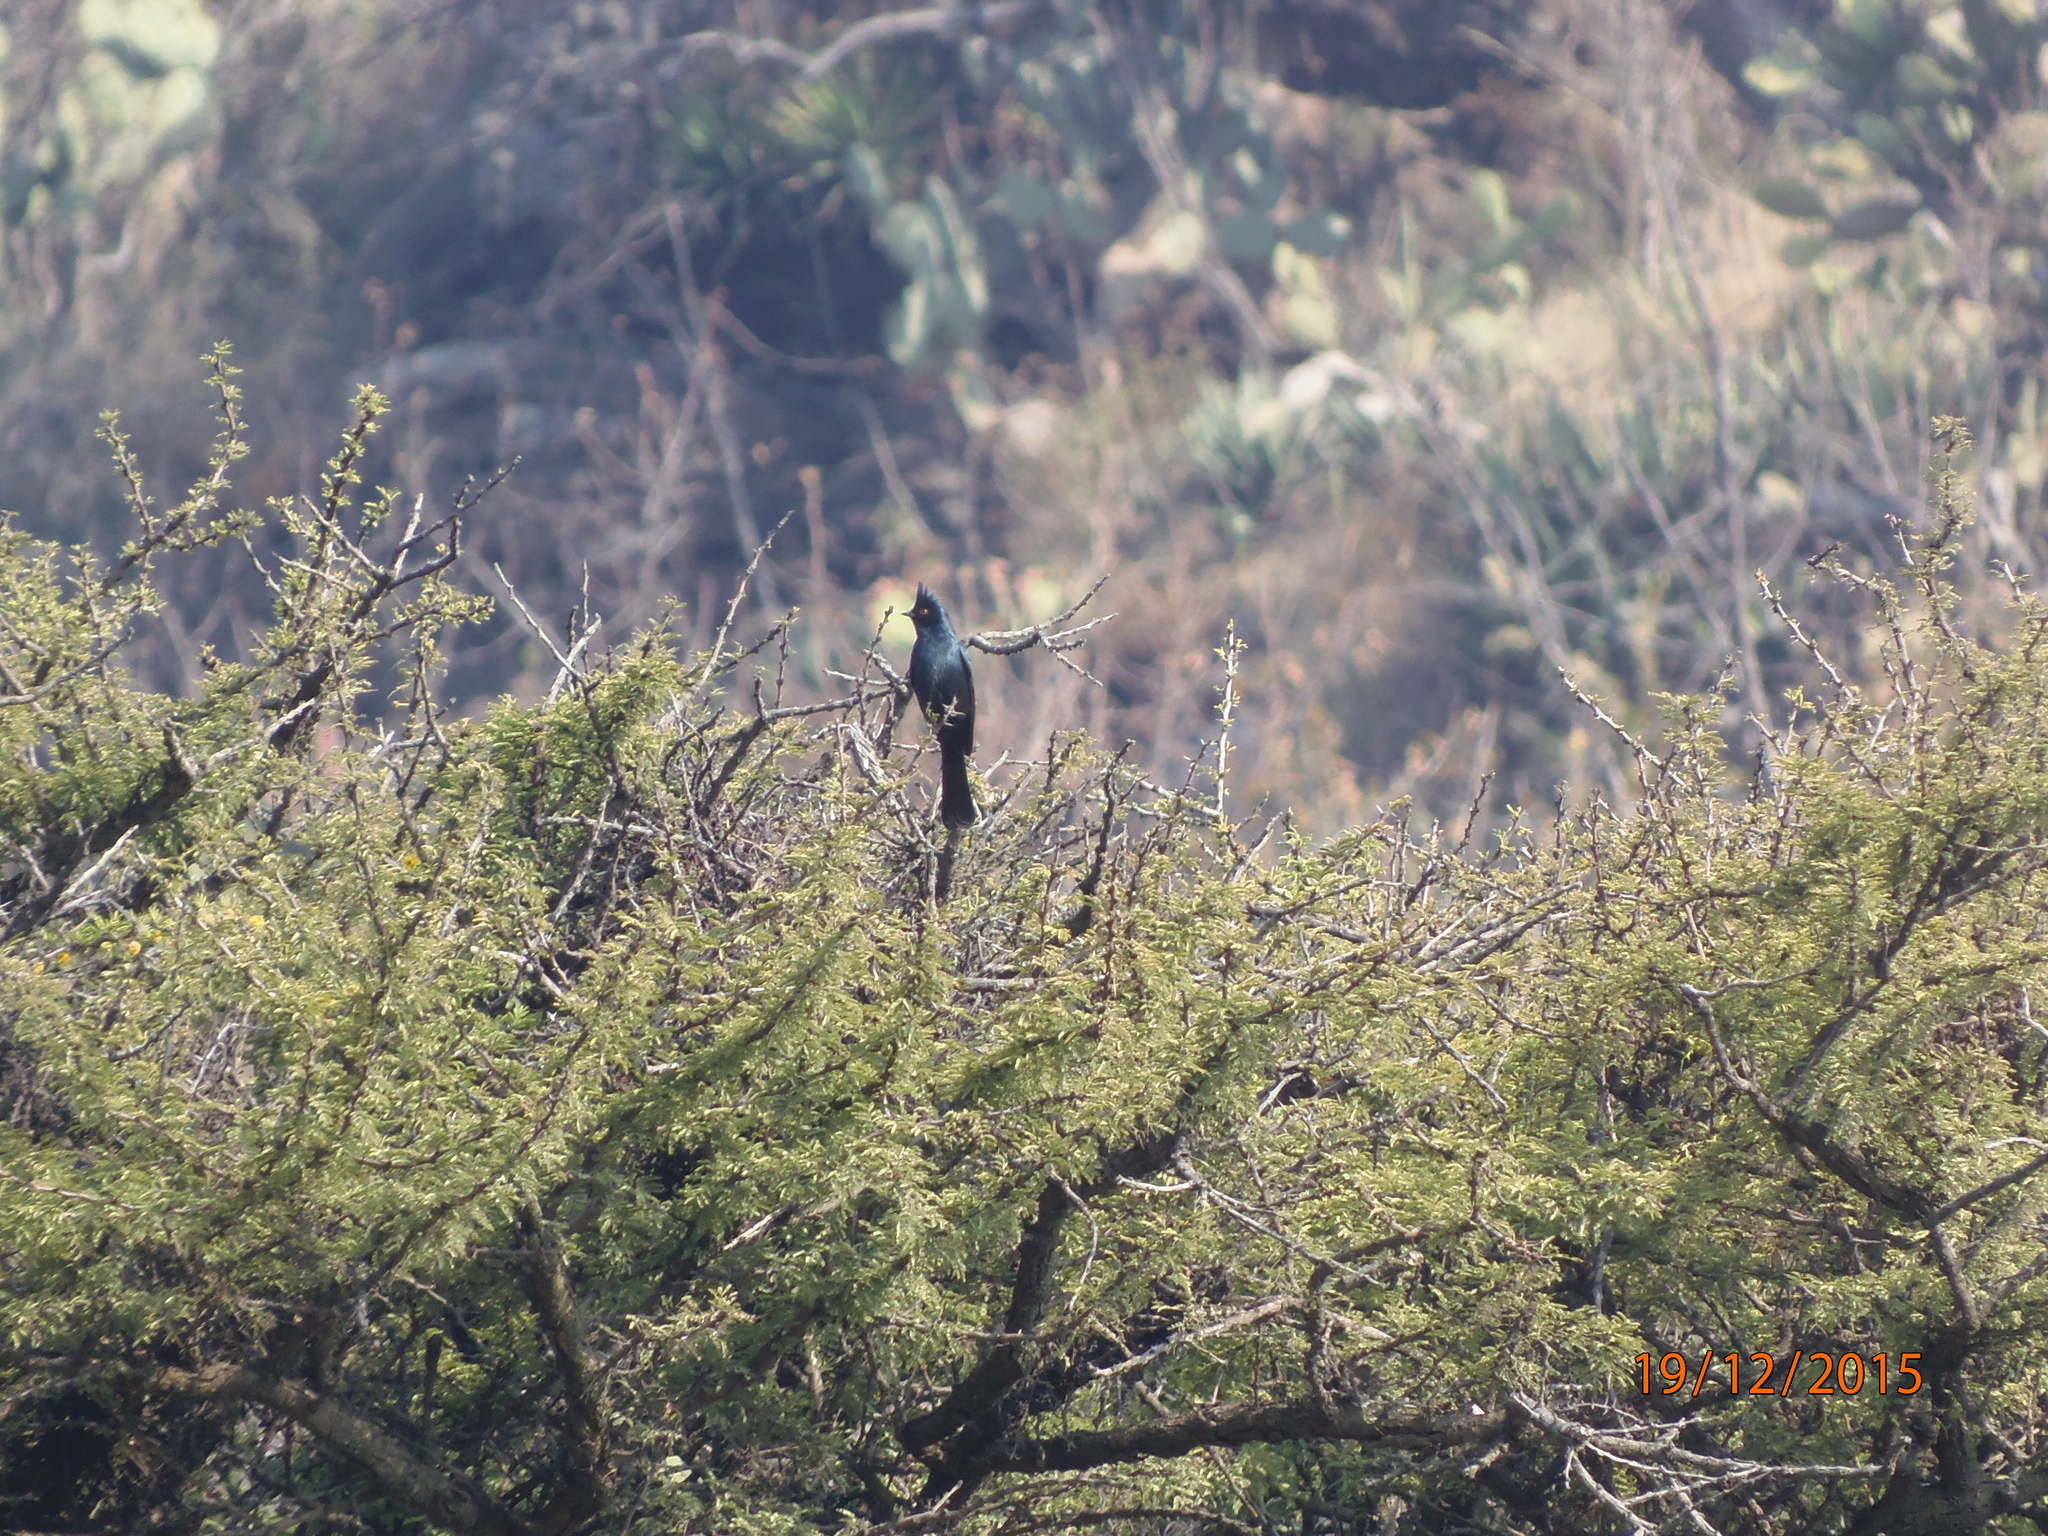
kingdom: Animalia
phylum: Chordata
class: Aves
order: Passeriformes
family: Ptilogonatidae
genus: Phainopepla
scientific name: Phainopepla nitens
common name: Phainopepla
